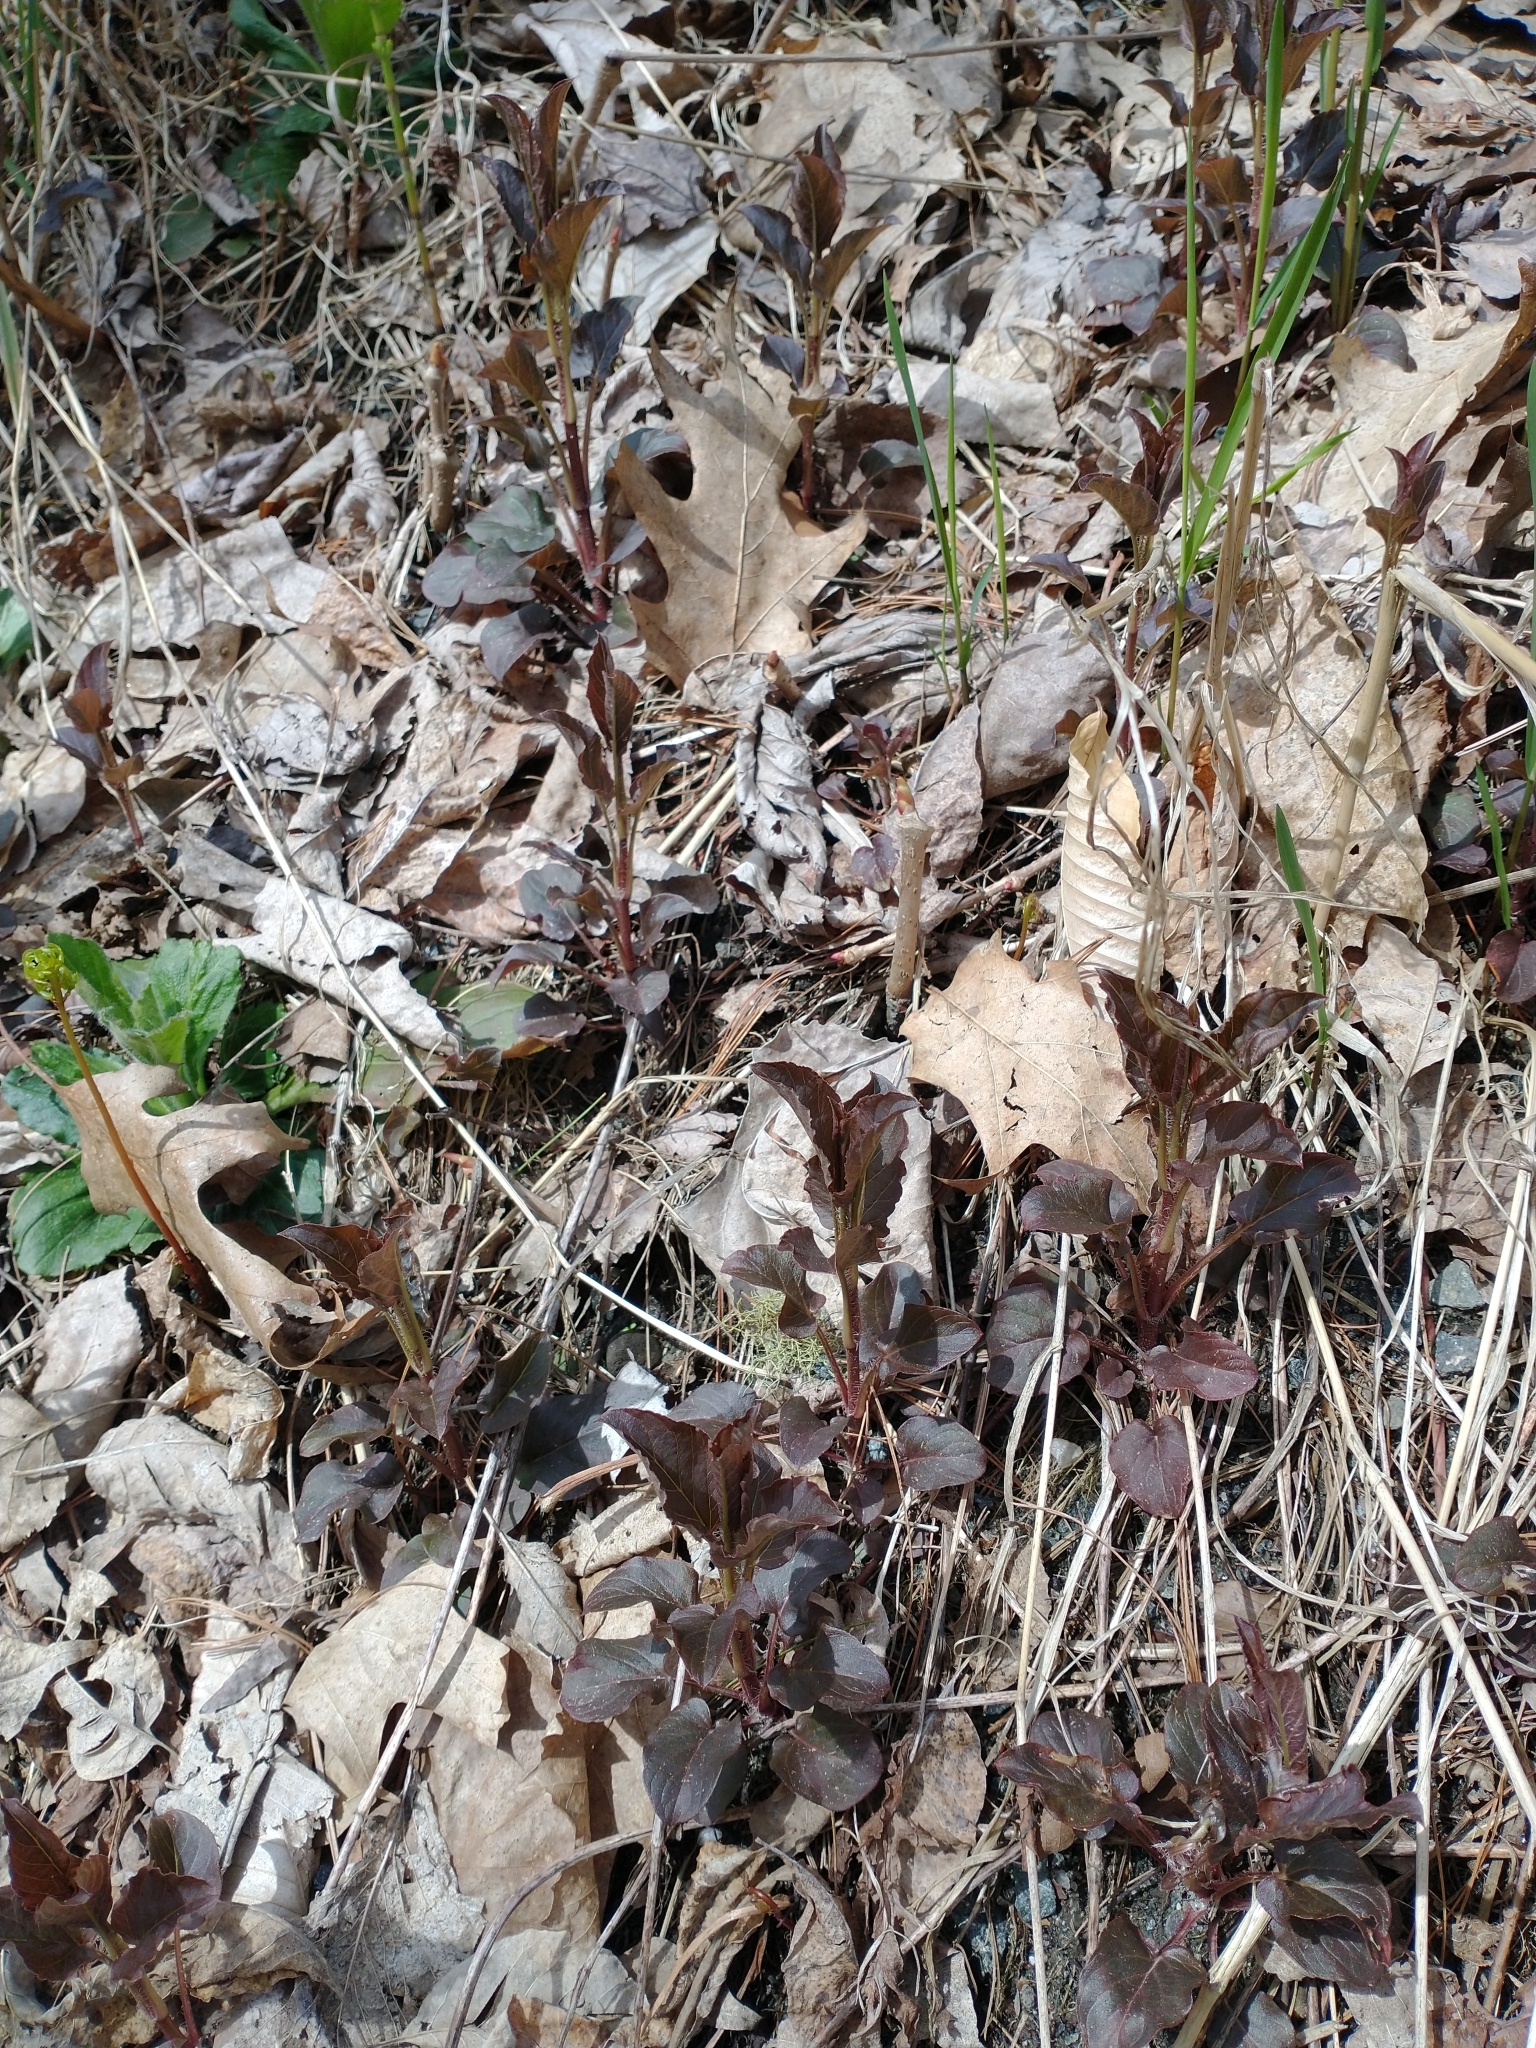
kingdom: Plantae
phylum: Tracheophyta
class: Magnoliopsida
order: Ericales
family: Primulaceae
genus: Lysimachia
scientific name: Lysimachia ciliata
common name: Fringed loosestrife
